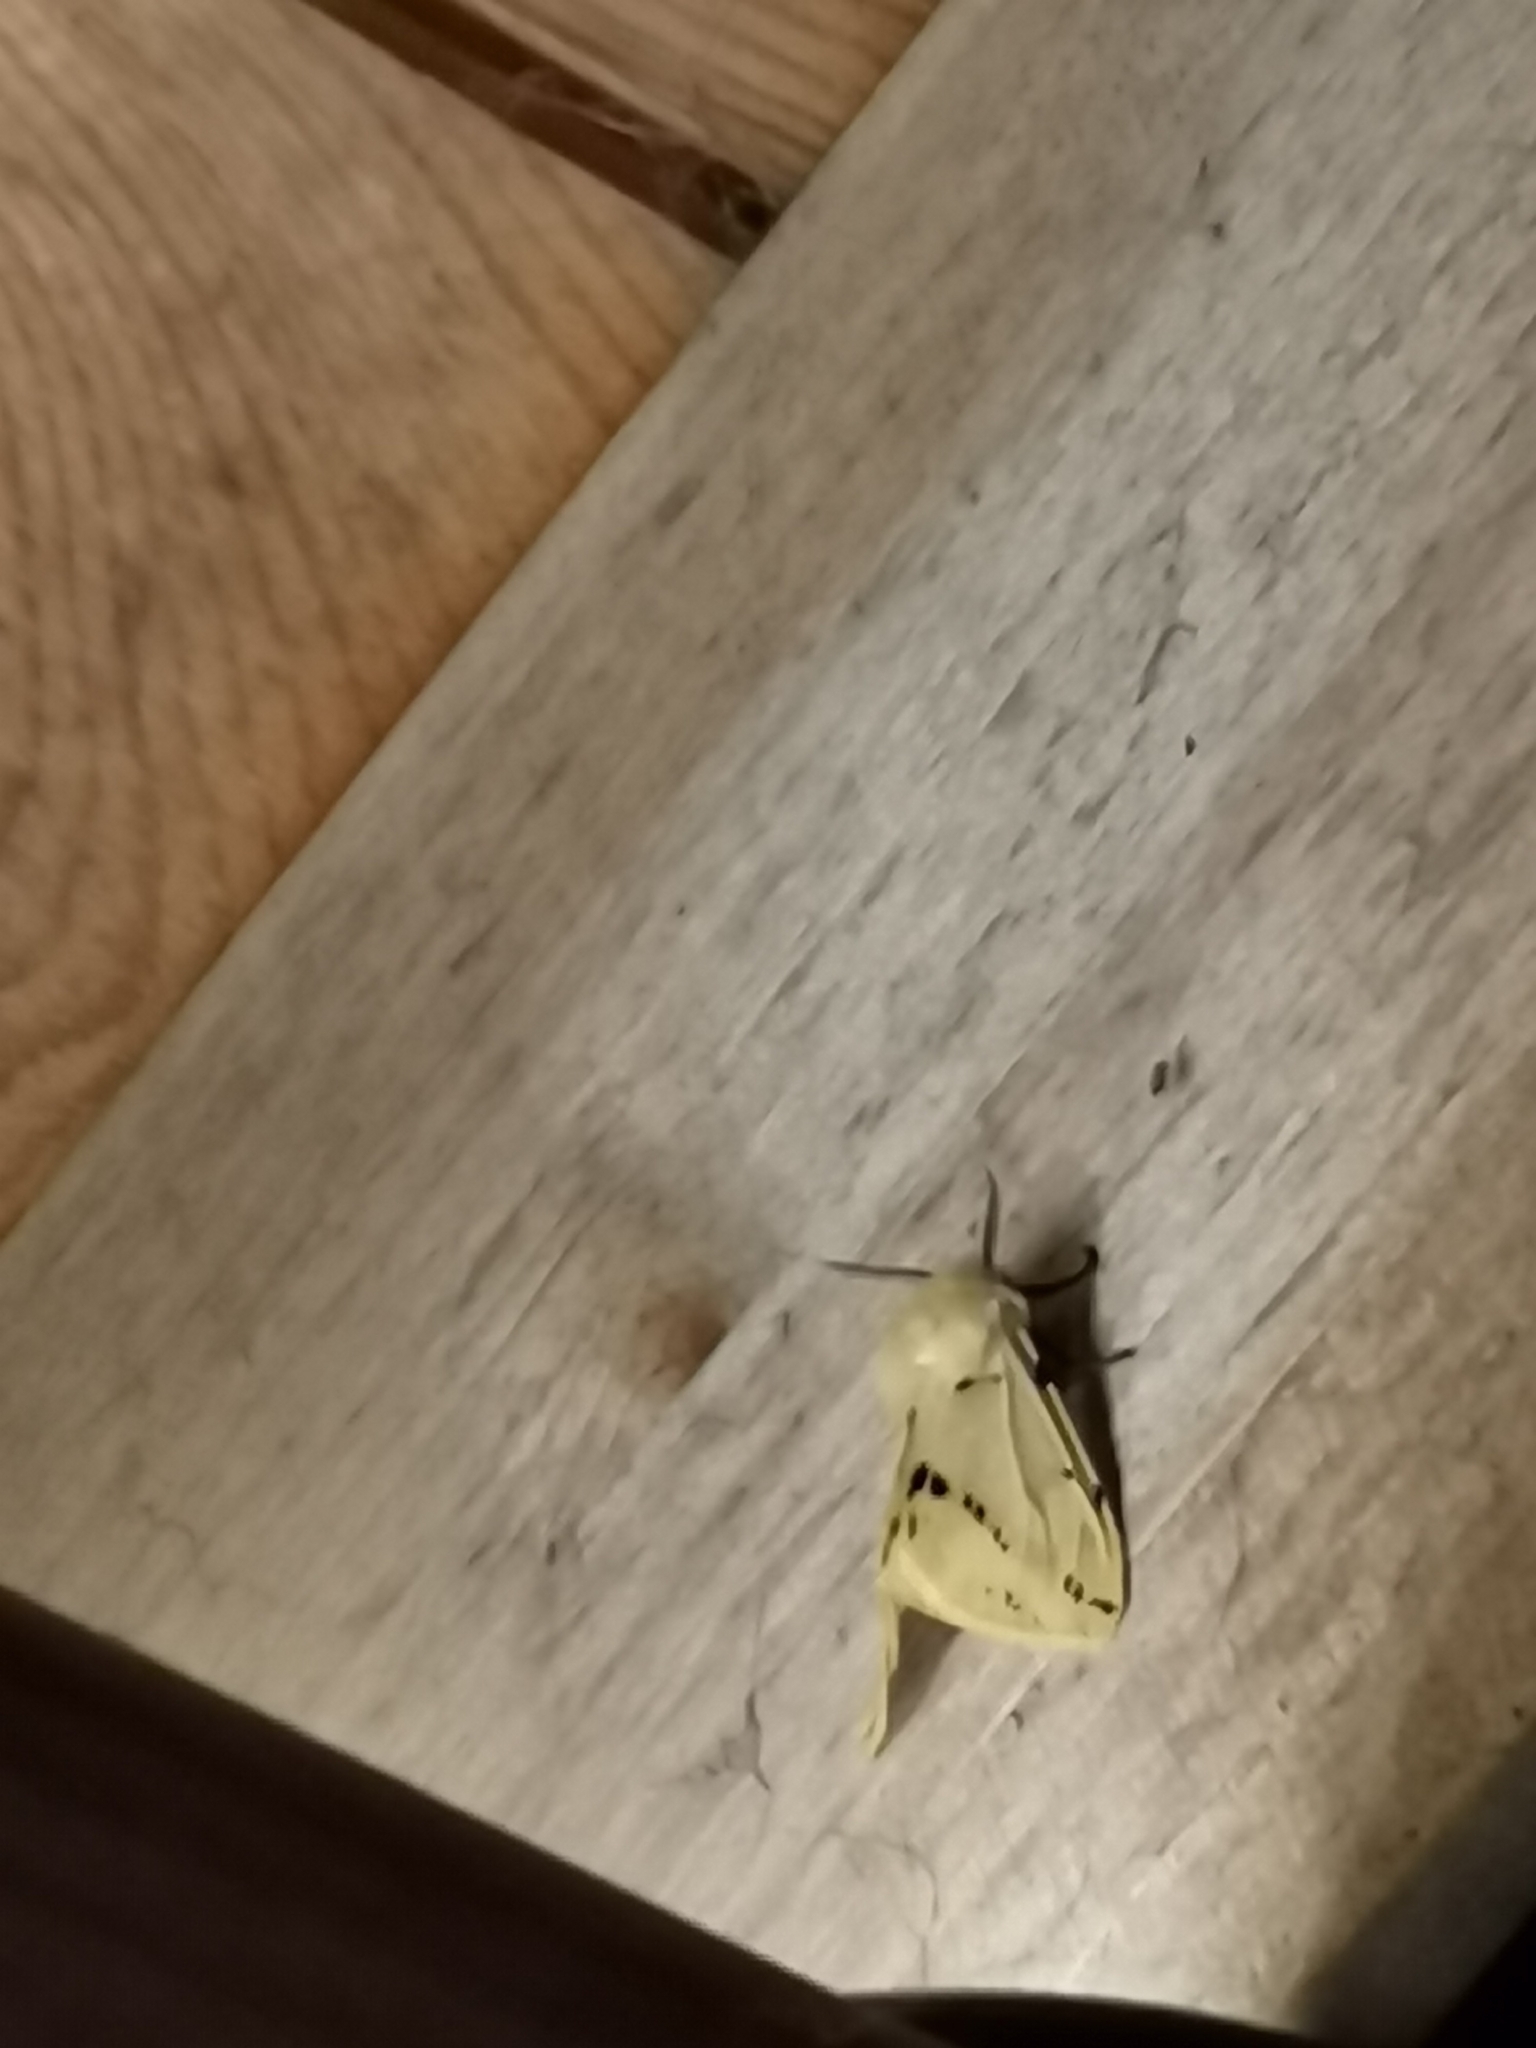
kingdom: Animalia
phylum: Arthropoda
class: Insecta
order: Lepidoptera
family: Erebidae
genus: Spilarctia
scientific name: Spilarctia lutea
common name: Buff ermine
